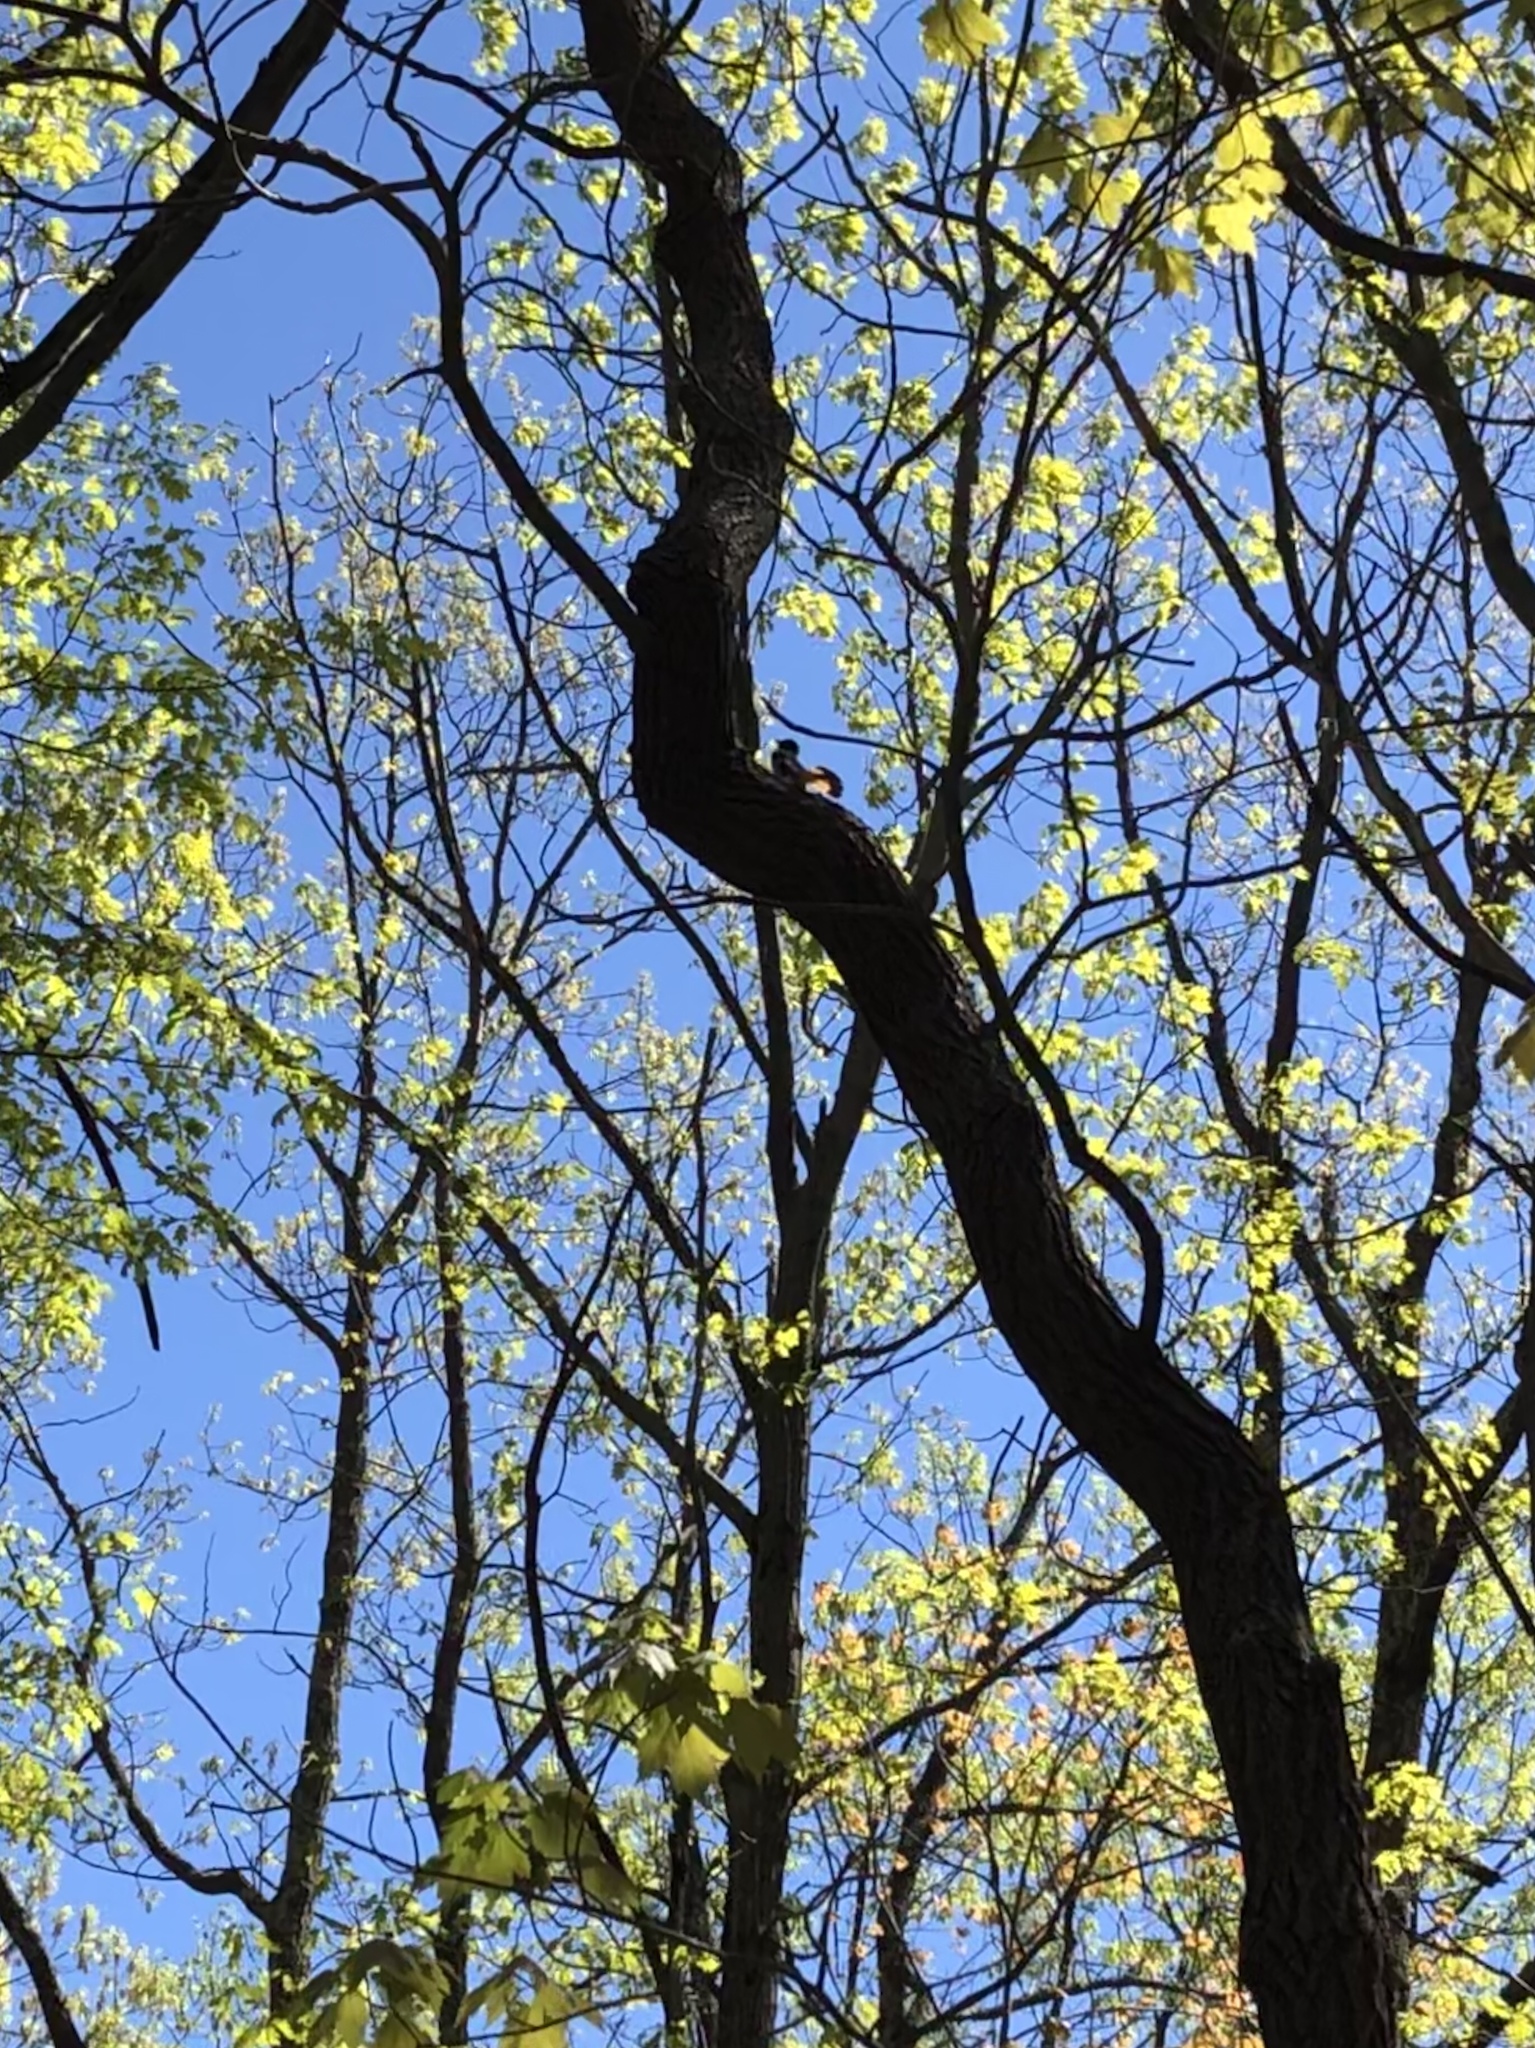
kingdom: Animalia
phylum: Chordata
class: Aves
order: Passeriformes
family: Parulidae
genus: Setophaga
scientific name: Setophaga ruticilla
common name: American redstart
